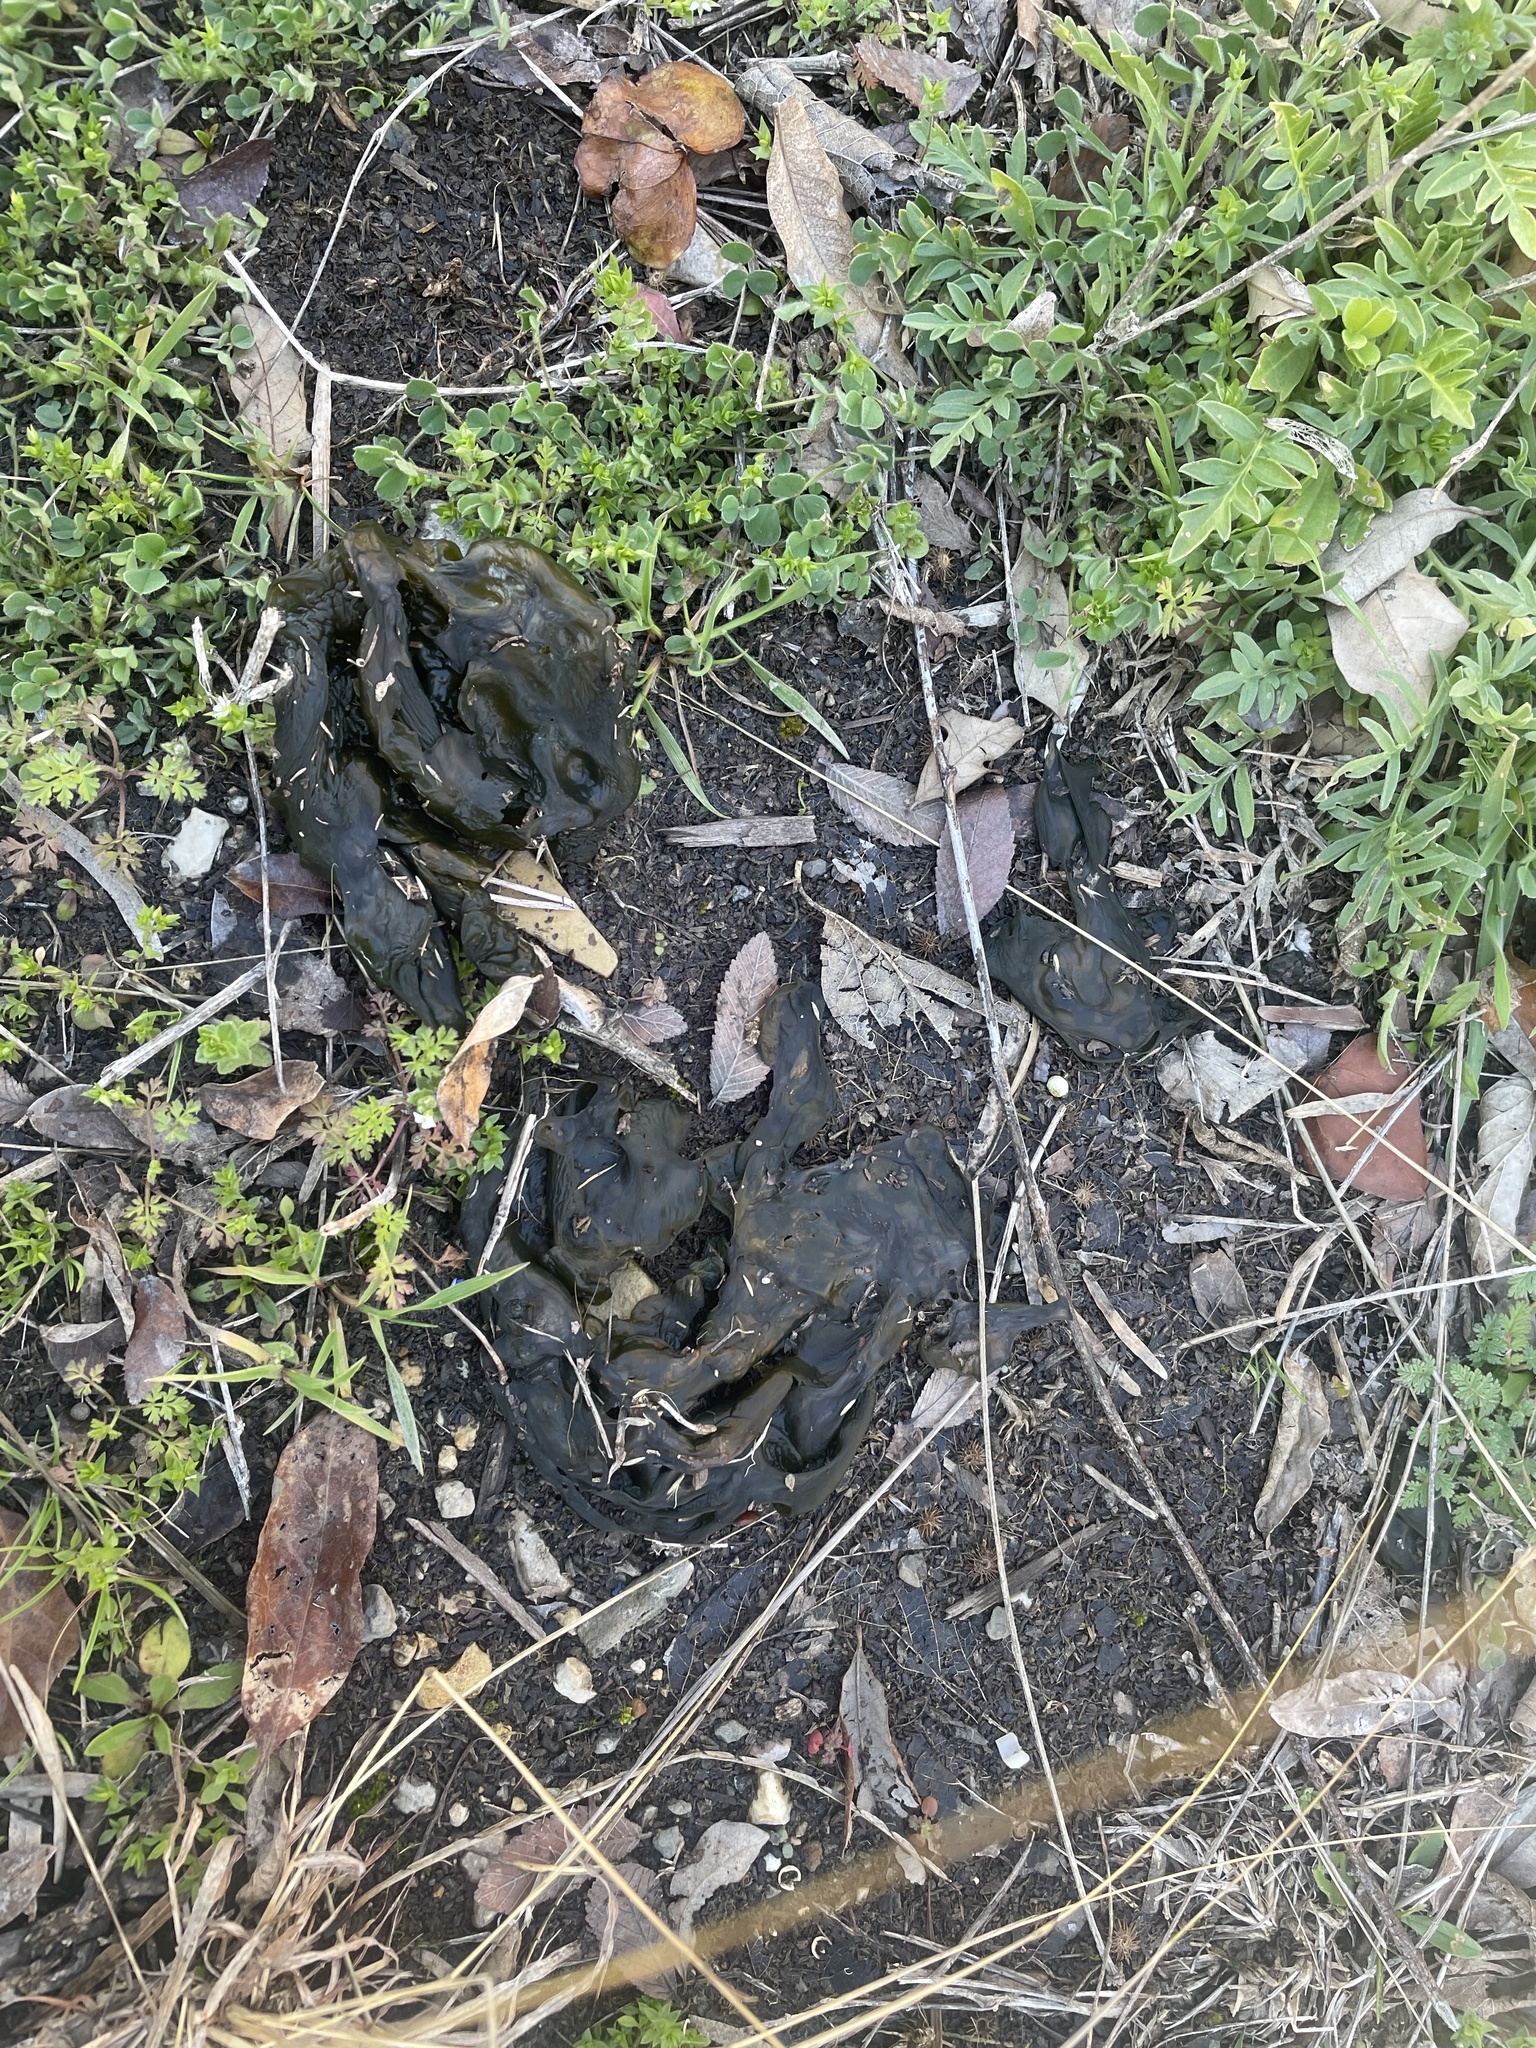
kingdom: Bacteria
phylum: Cyanobacteria
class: Cyanobacteriia
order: Cyanobacteriales
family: Nostocaceae
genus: Nostoc
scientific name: Nostoc commune
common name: Star jelly
